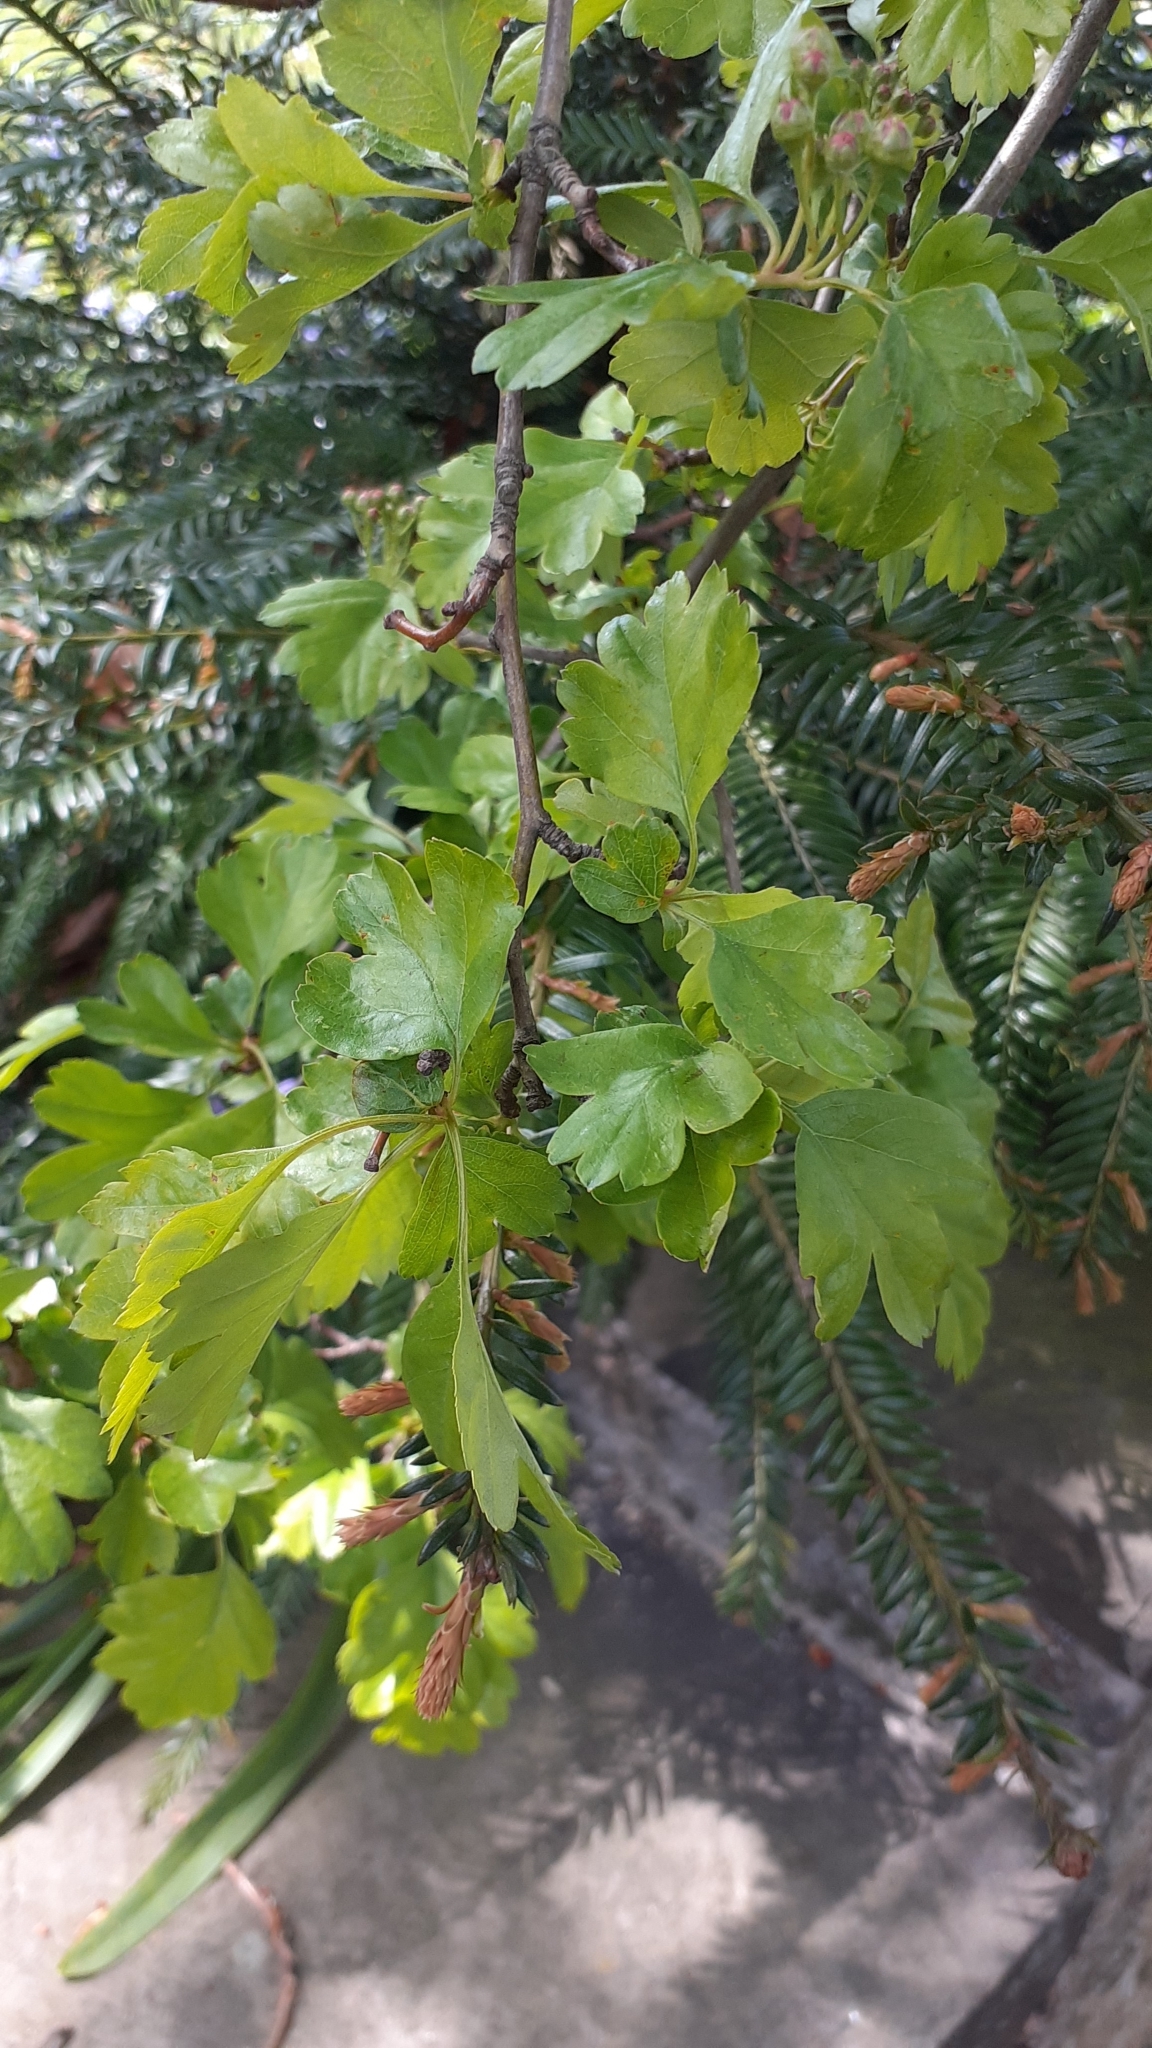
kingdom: Plantae
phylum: Tracheophyta
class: Magnoliopsida
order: Rosales
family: Rosaceae
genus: Crataegus
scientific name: Crataegus laevigata
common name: Midland hawthorn
